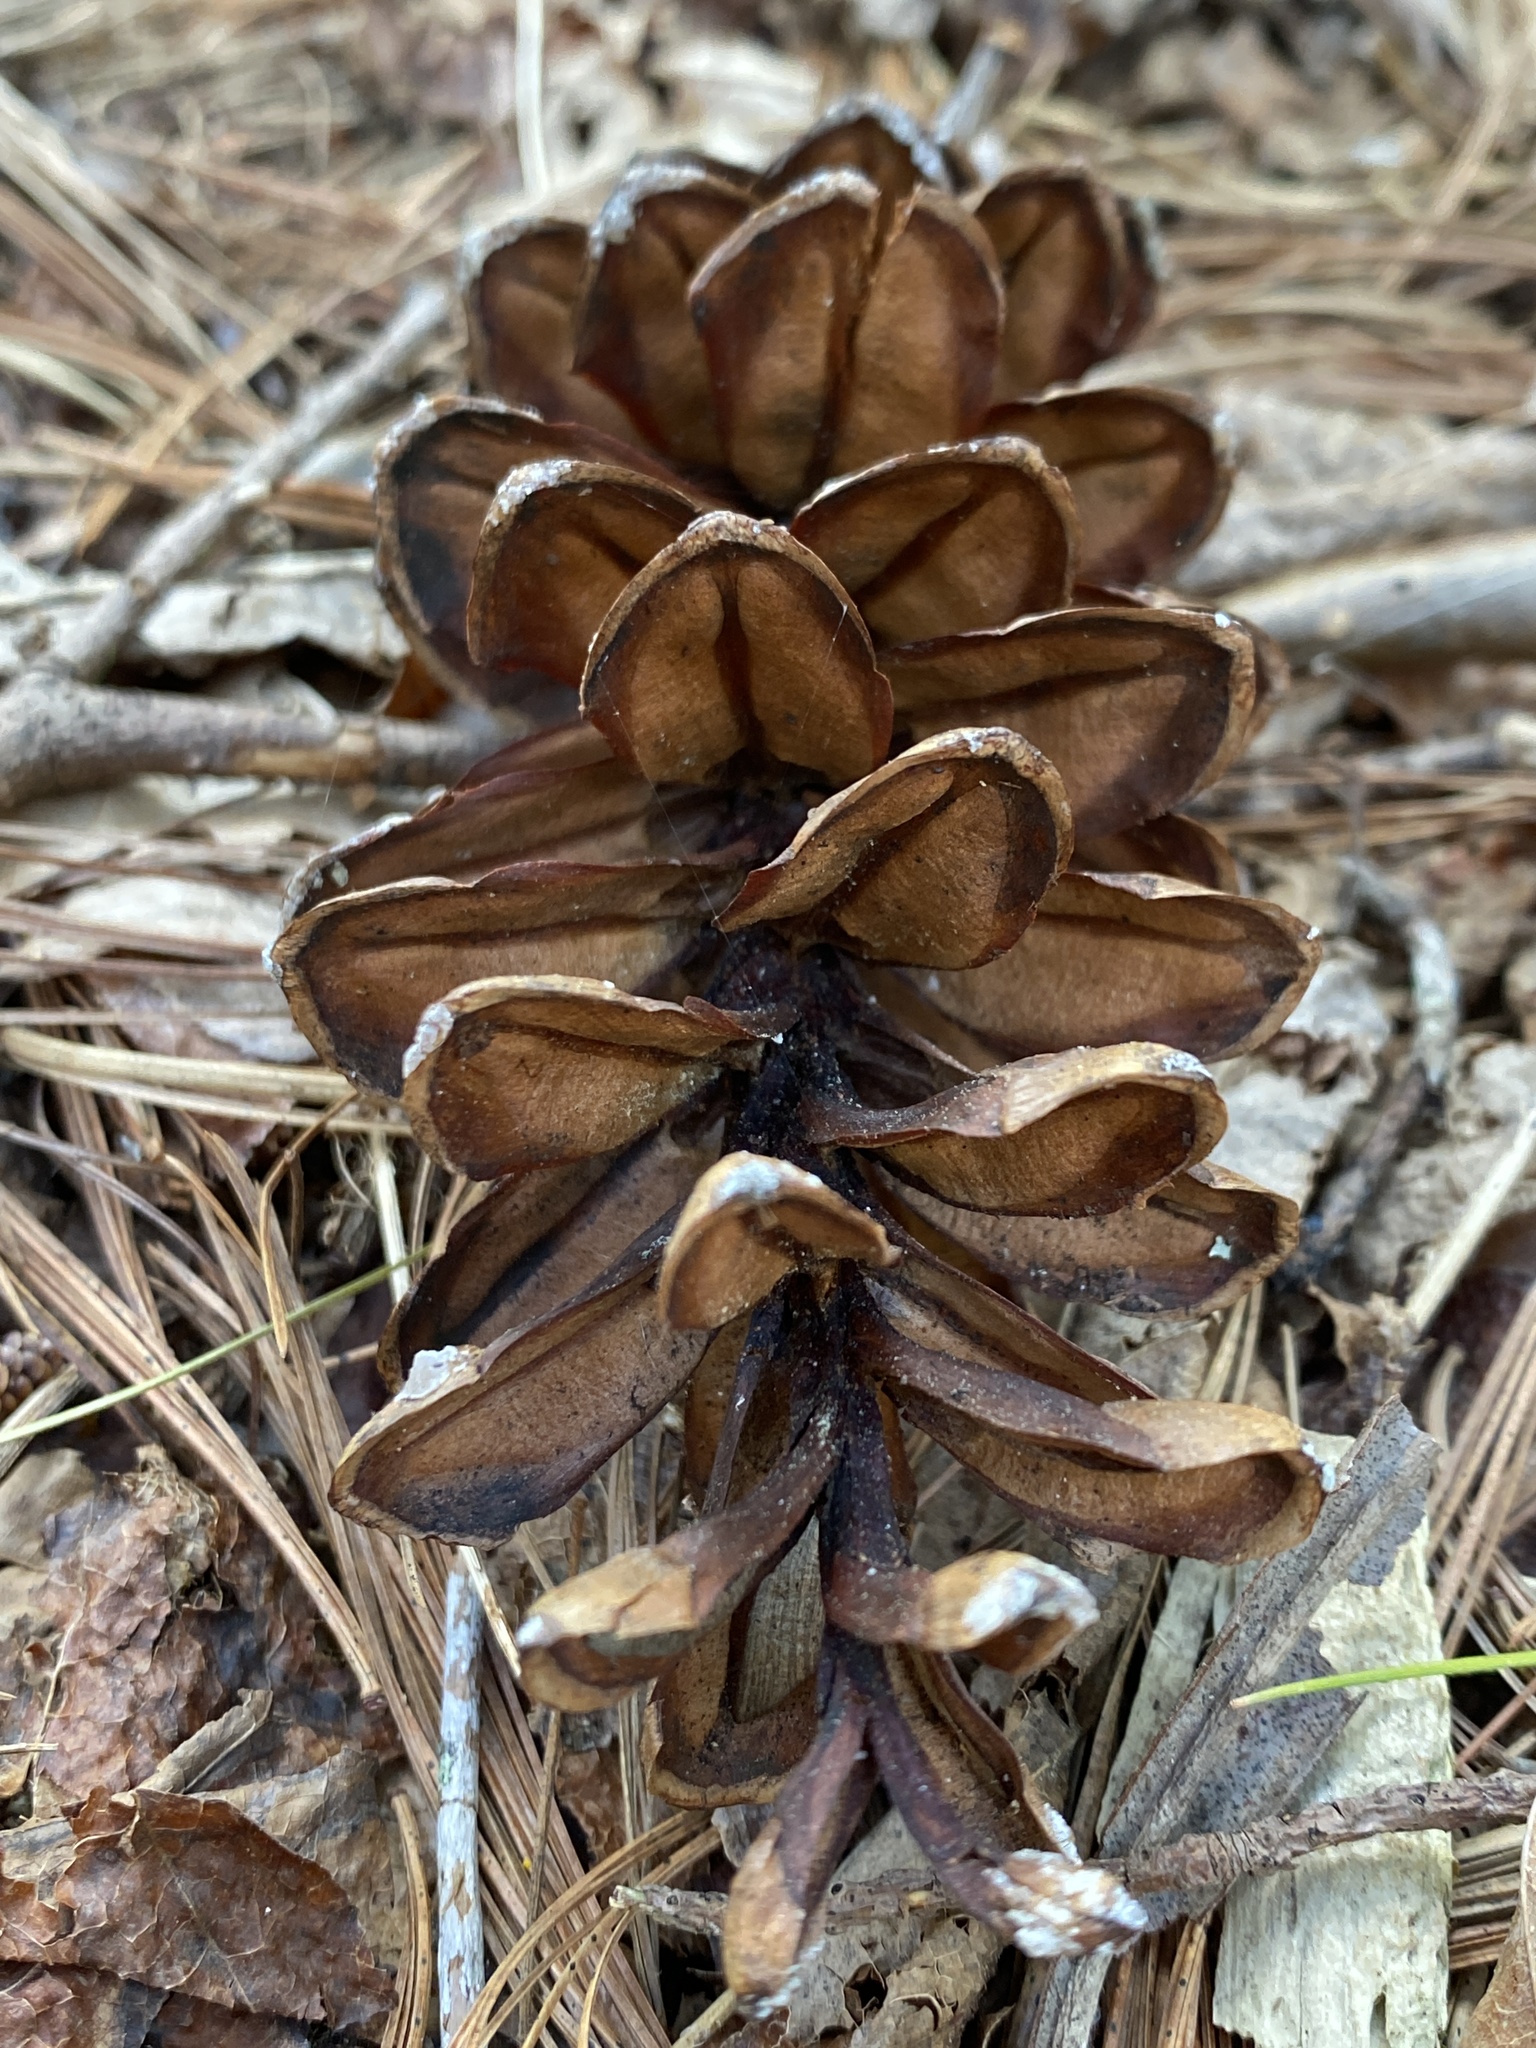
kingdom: Plantae
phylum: Tracheophyta
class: Pinopsida
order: Pinales
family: Pinaceae
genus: Pinus
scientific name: Pinus strobus
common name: Weymouth pine
